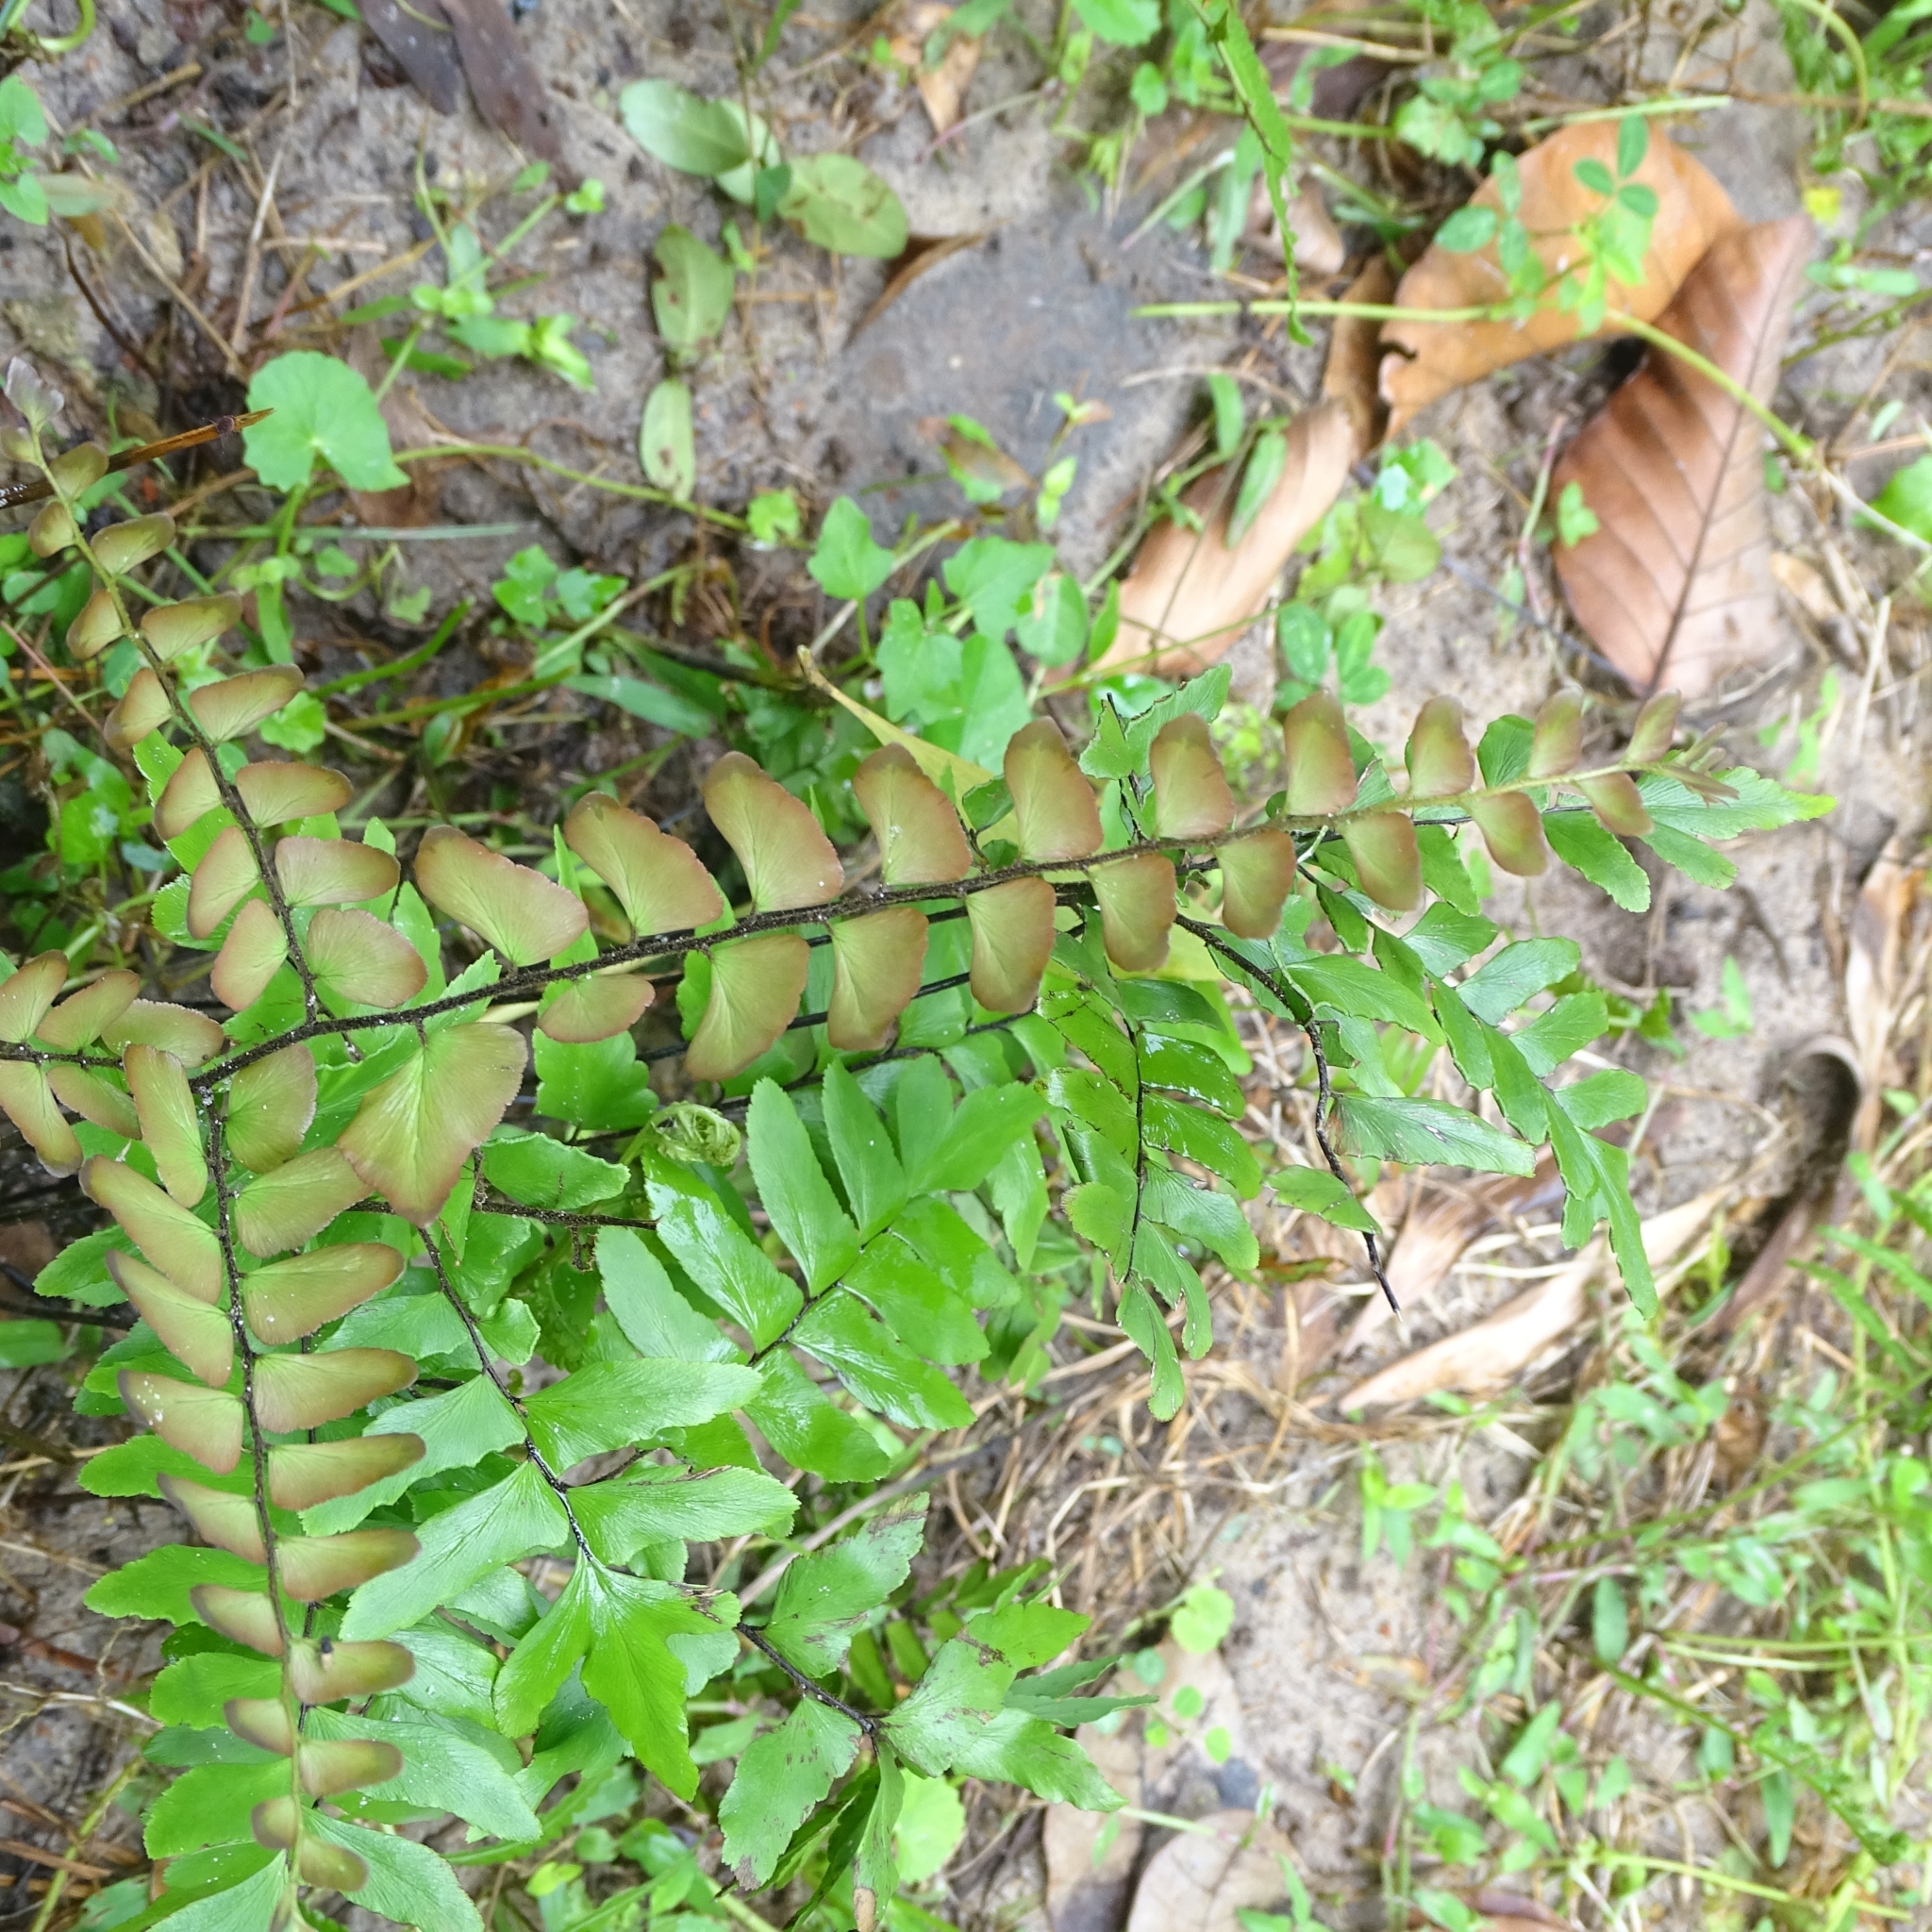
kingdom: Plantae
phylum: Tracheophyta
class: Polypodiopsida
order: Polypodiales
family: Pteridaceae
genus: Adiantum
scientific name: Adiantum latifolium
